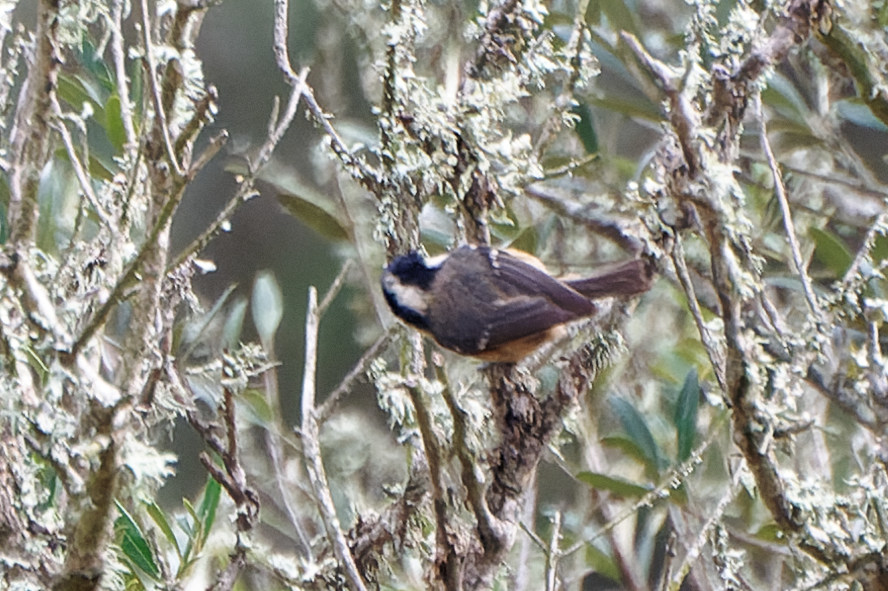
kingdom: Animalia
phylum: Chordata
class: Aves
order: Passeriformes
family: Paridae
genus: Periparus
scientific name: Periparus ater
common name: Coal tit
